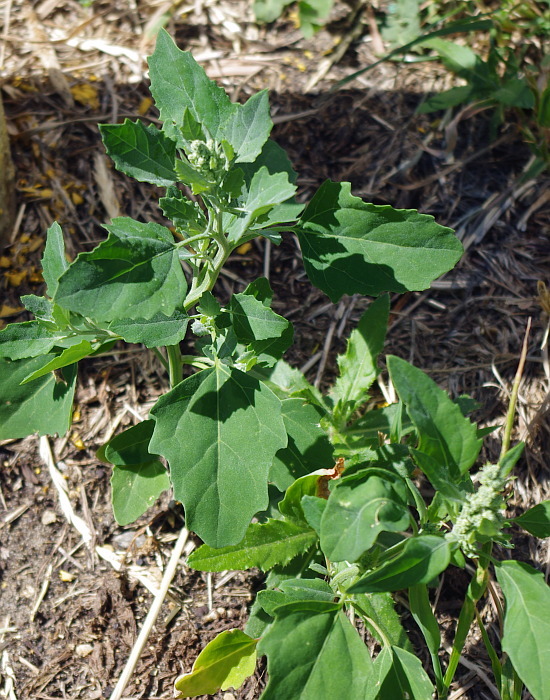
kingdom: Plantae
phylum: Tracheophyta
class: Magnoliopsida
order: Caryophyllales
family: Amaranthaceae
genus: Chenopodium
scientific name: Chenopodium album
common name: Fat-hen
